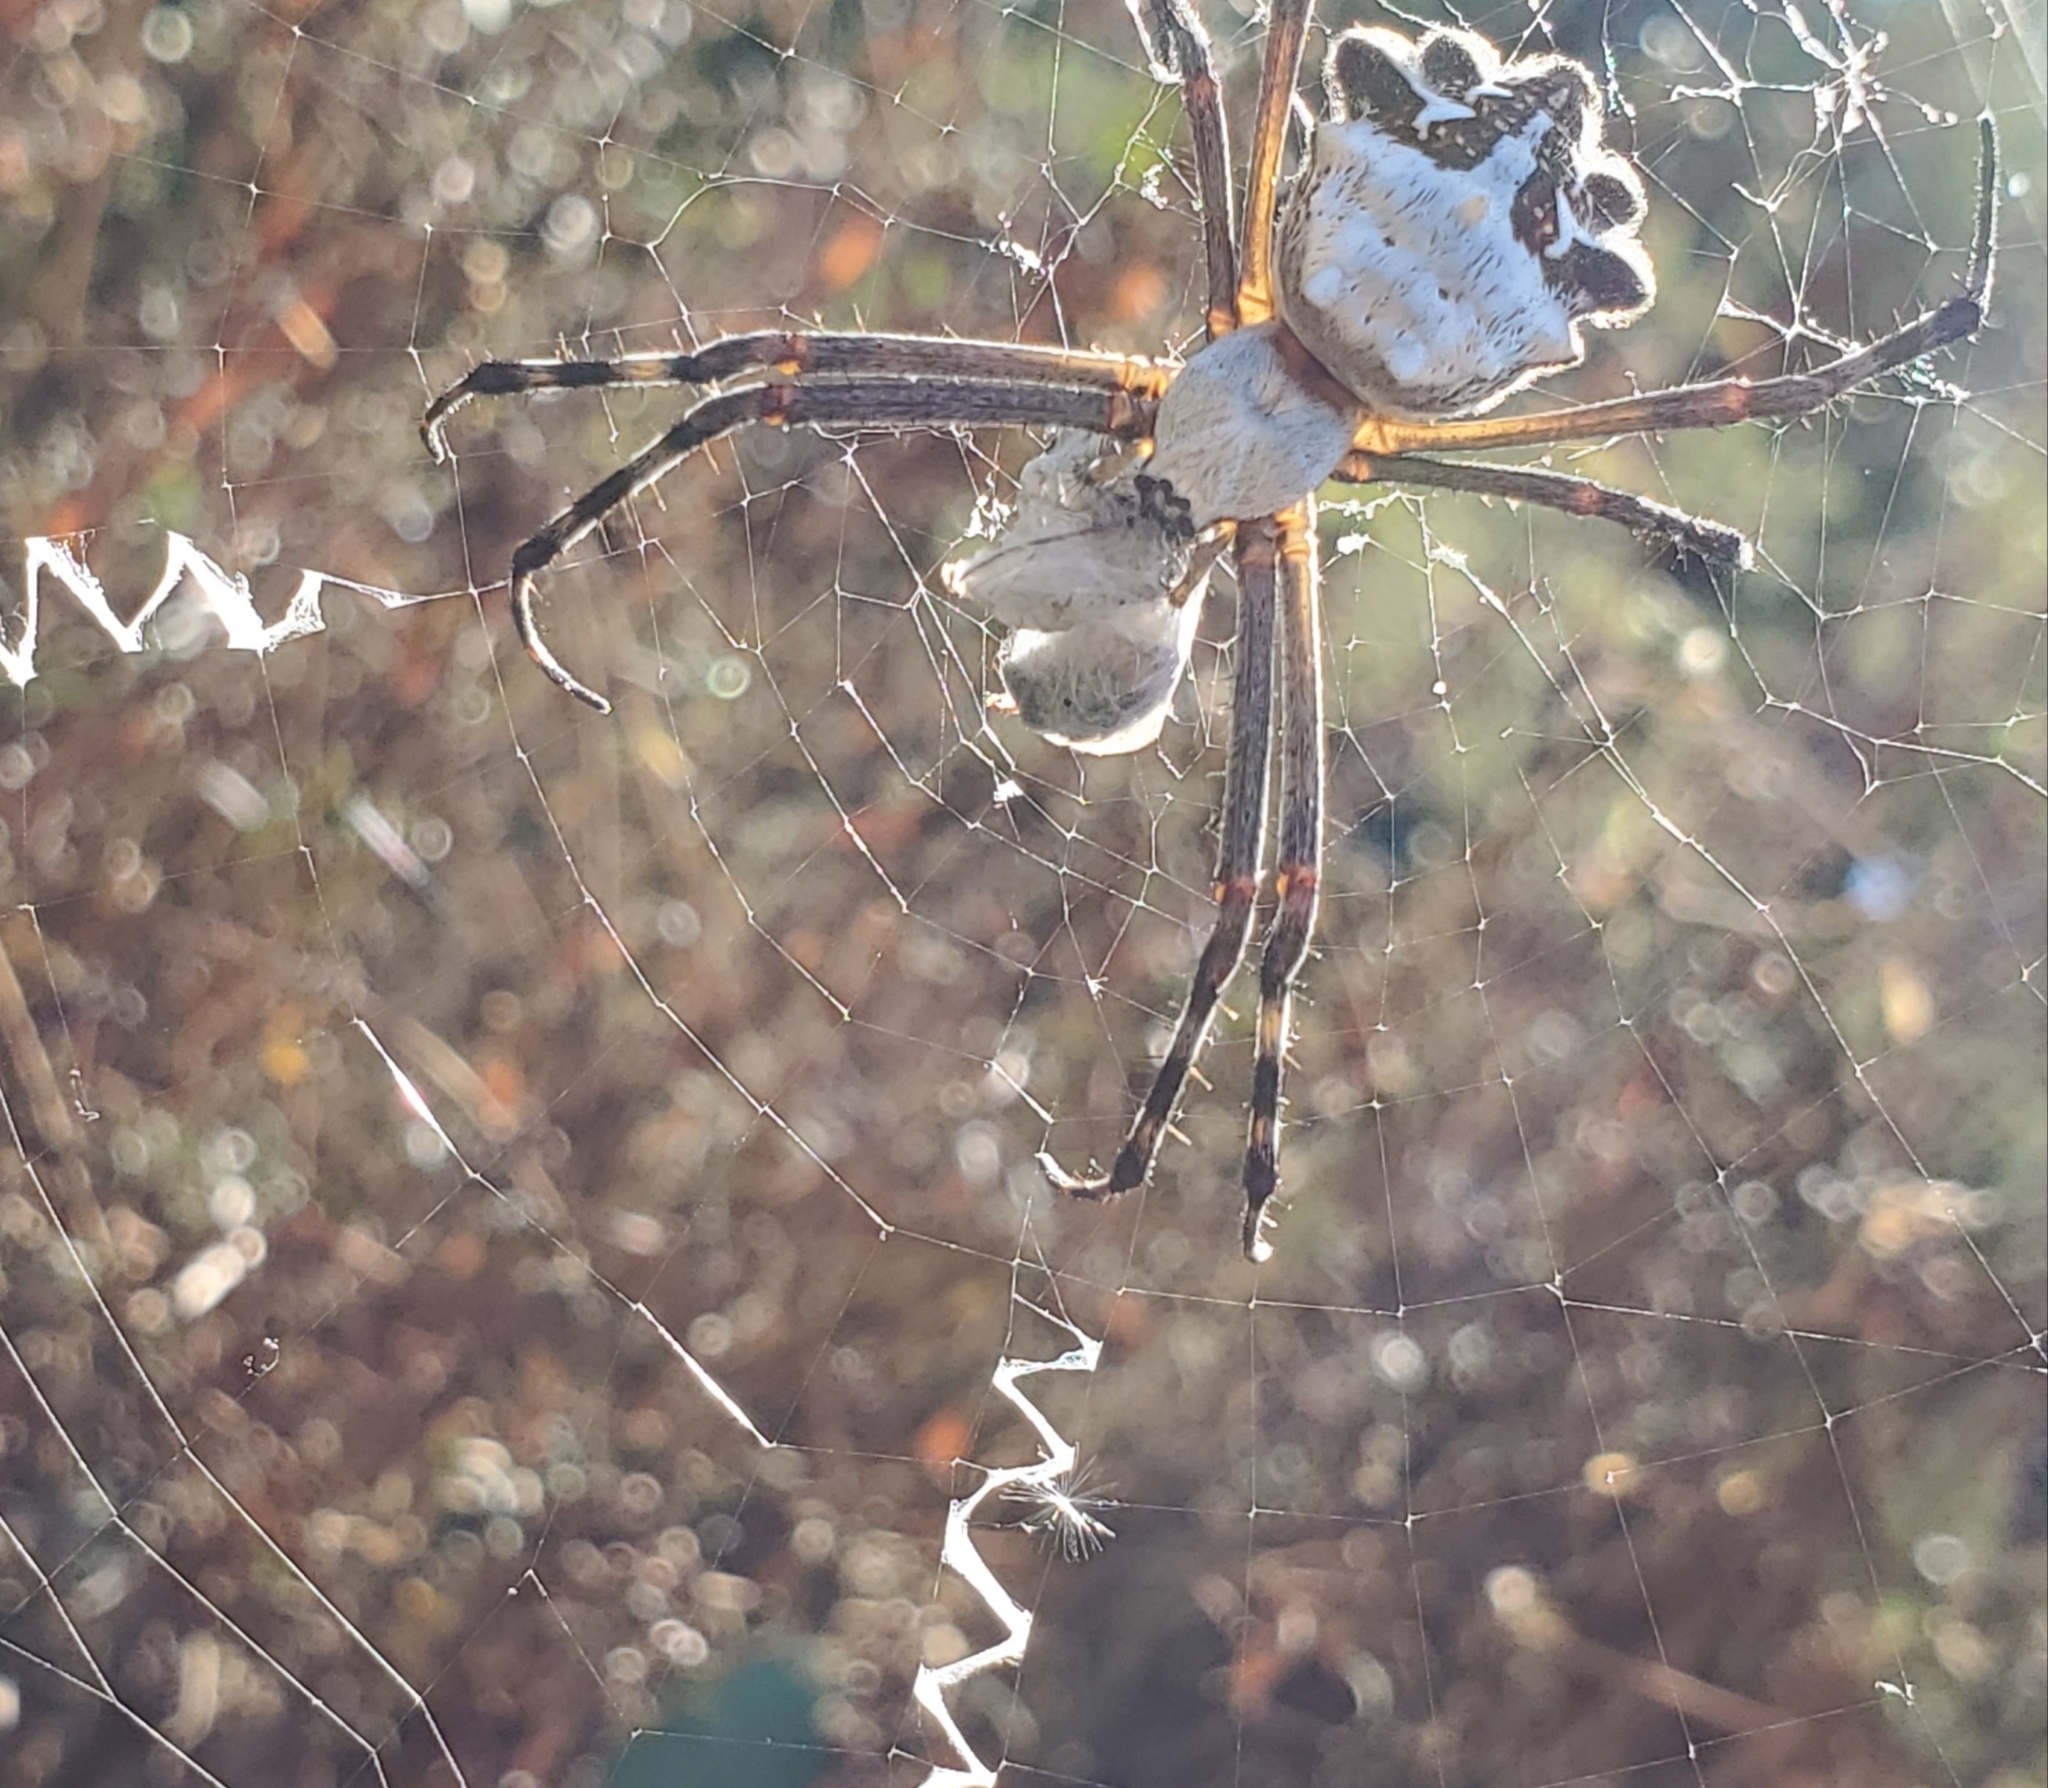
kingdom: Animalia
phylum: Arthropoda
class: Arachnida
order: Araneae
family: Araneidae
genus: Argiope
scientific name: Argiope argentata
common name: Orb weavers
